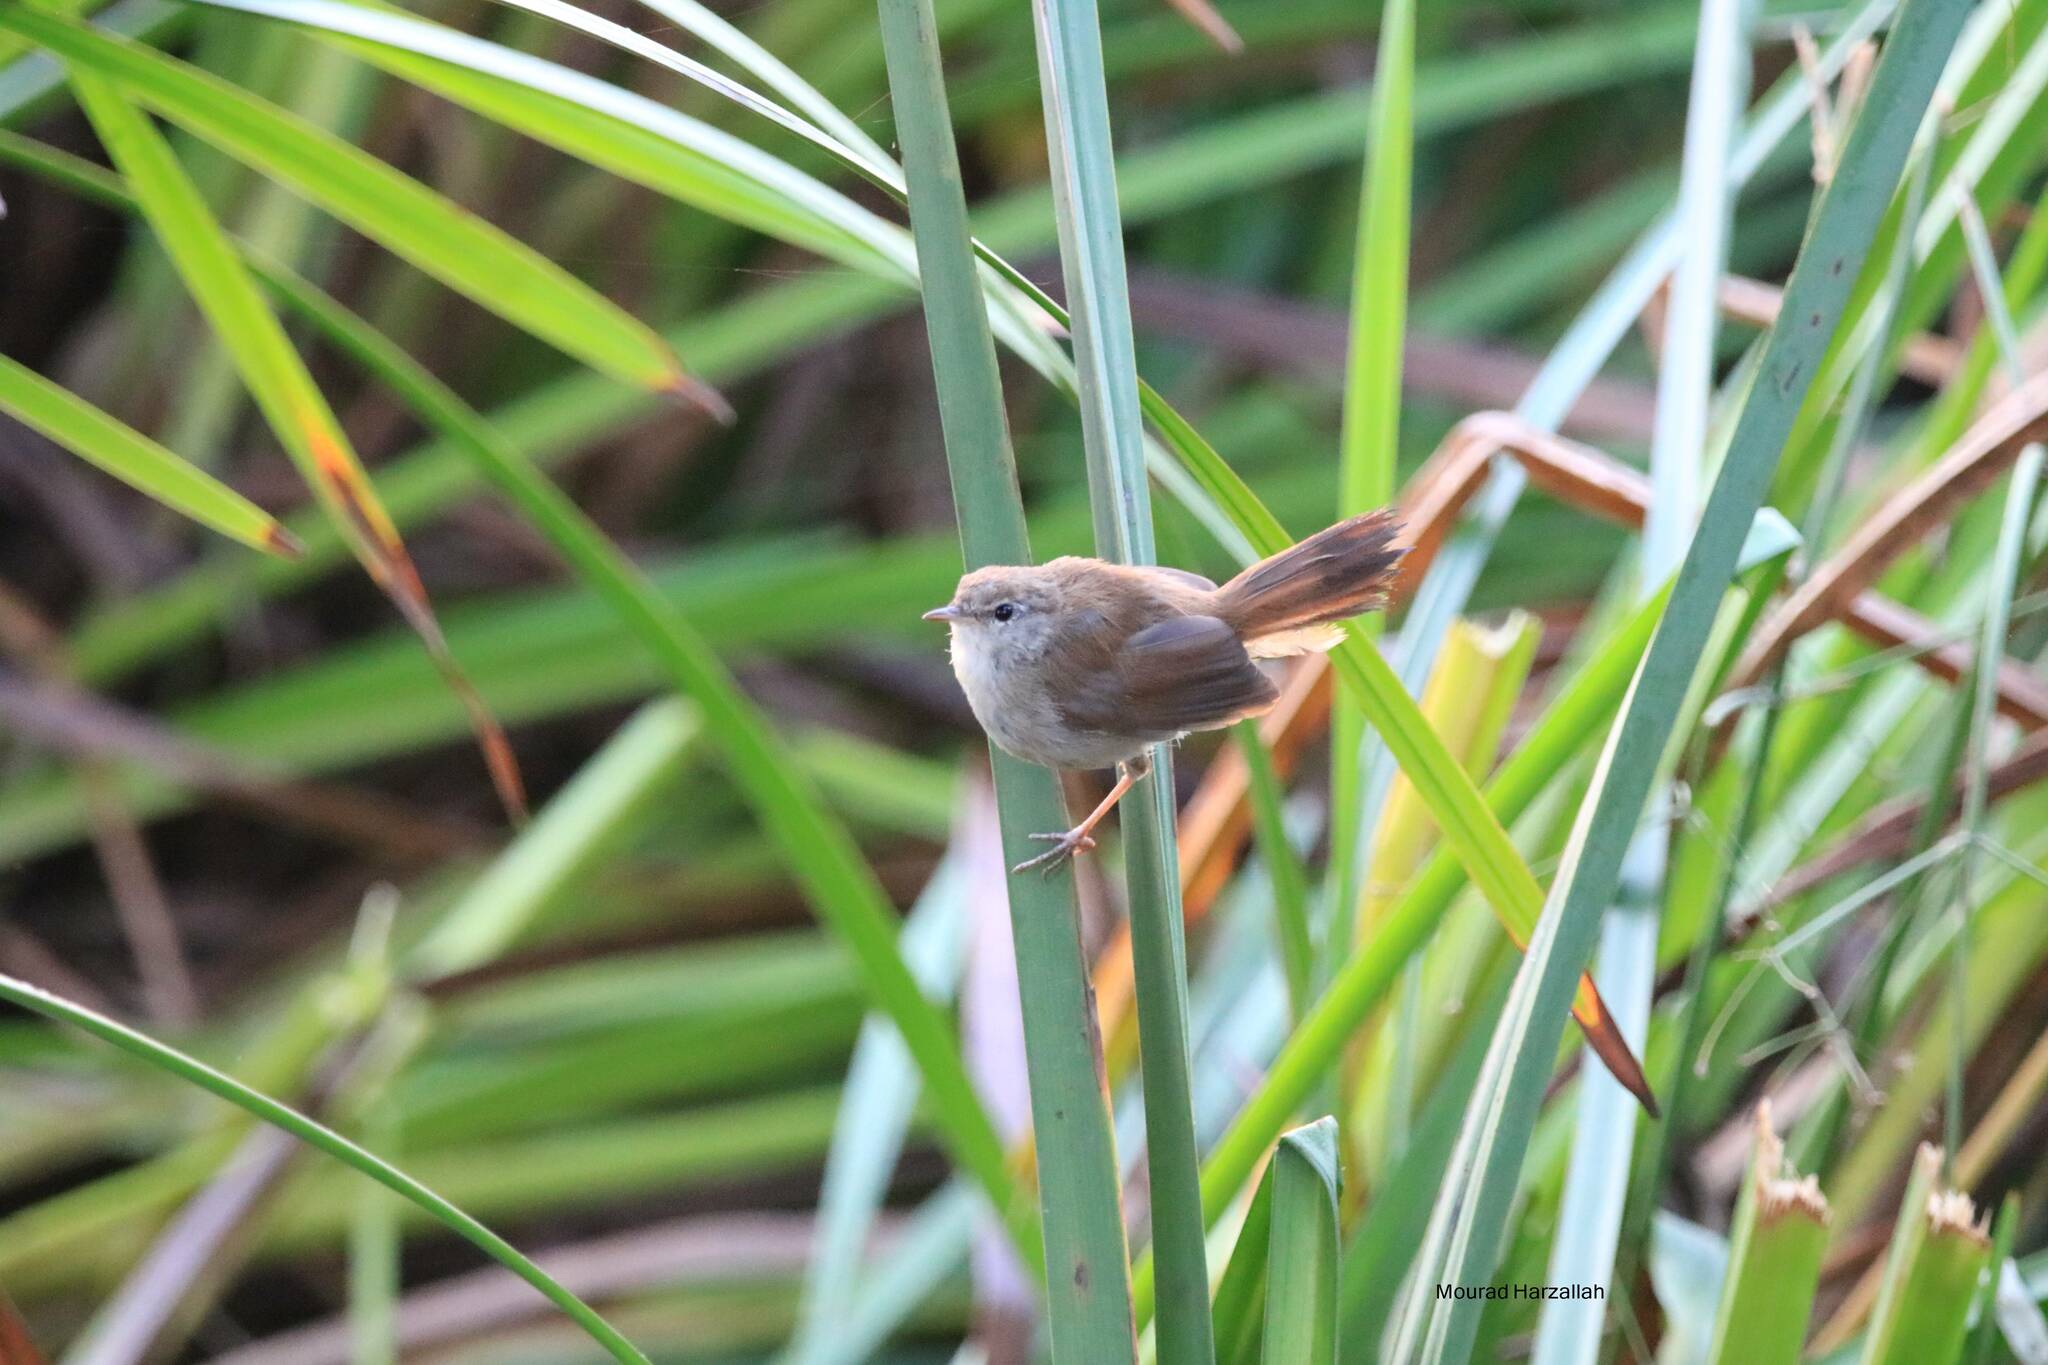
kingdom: Animalia
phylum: Chordata
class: Aves
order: Passeriformes
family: Cettiidae
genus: Cettia
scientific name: Cettia cetti
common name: Cetti's warbler
